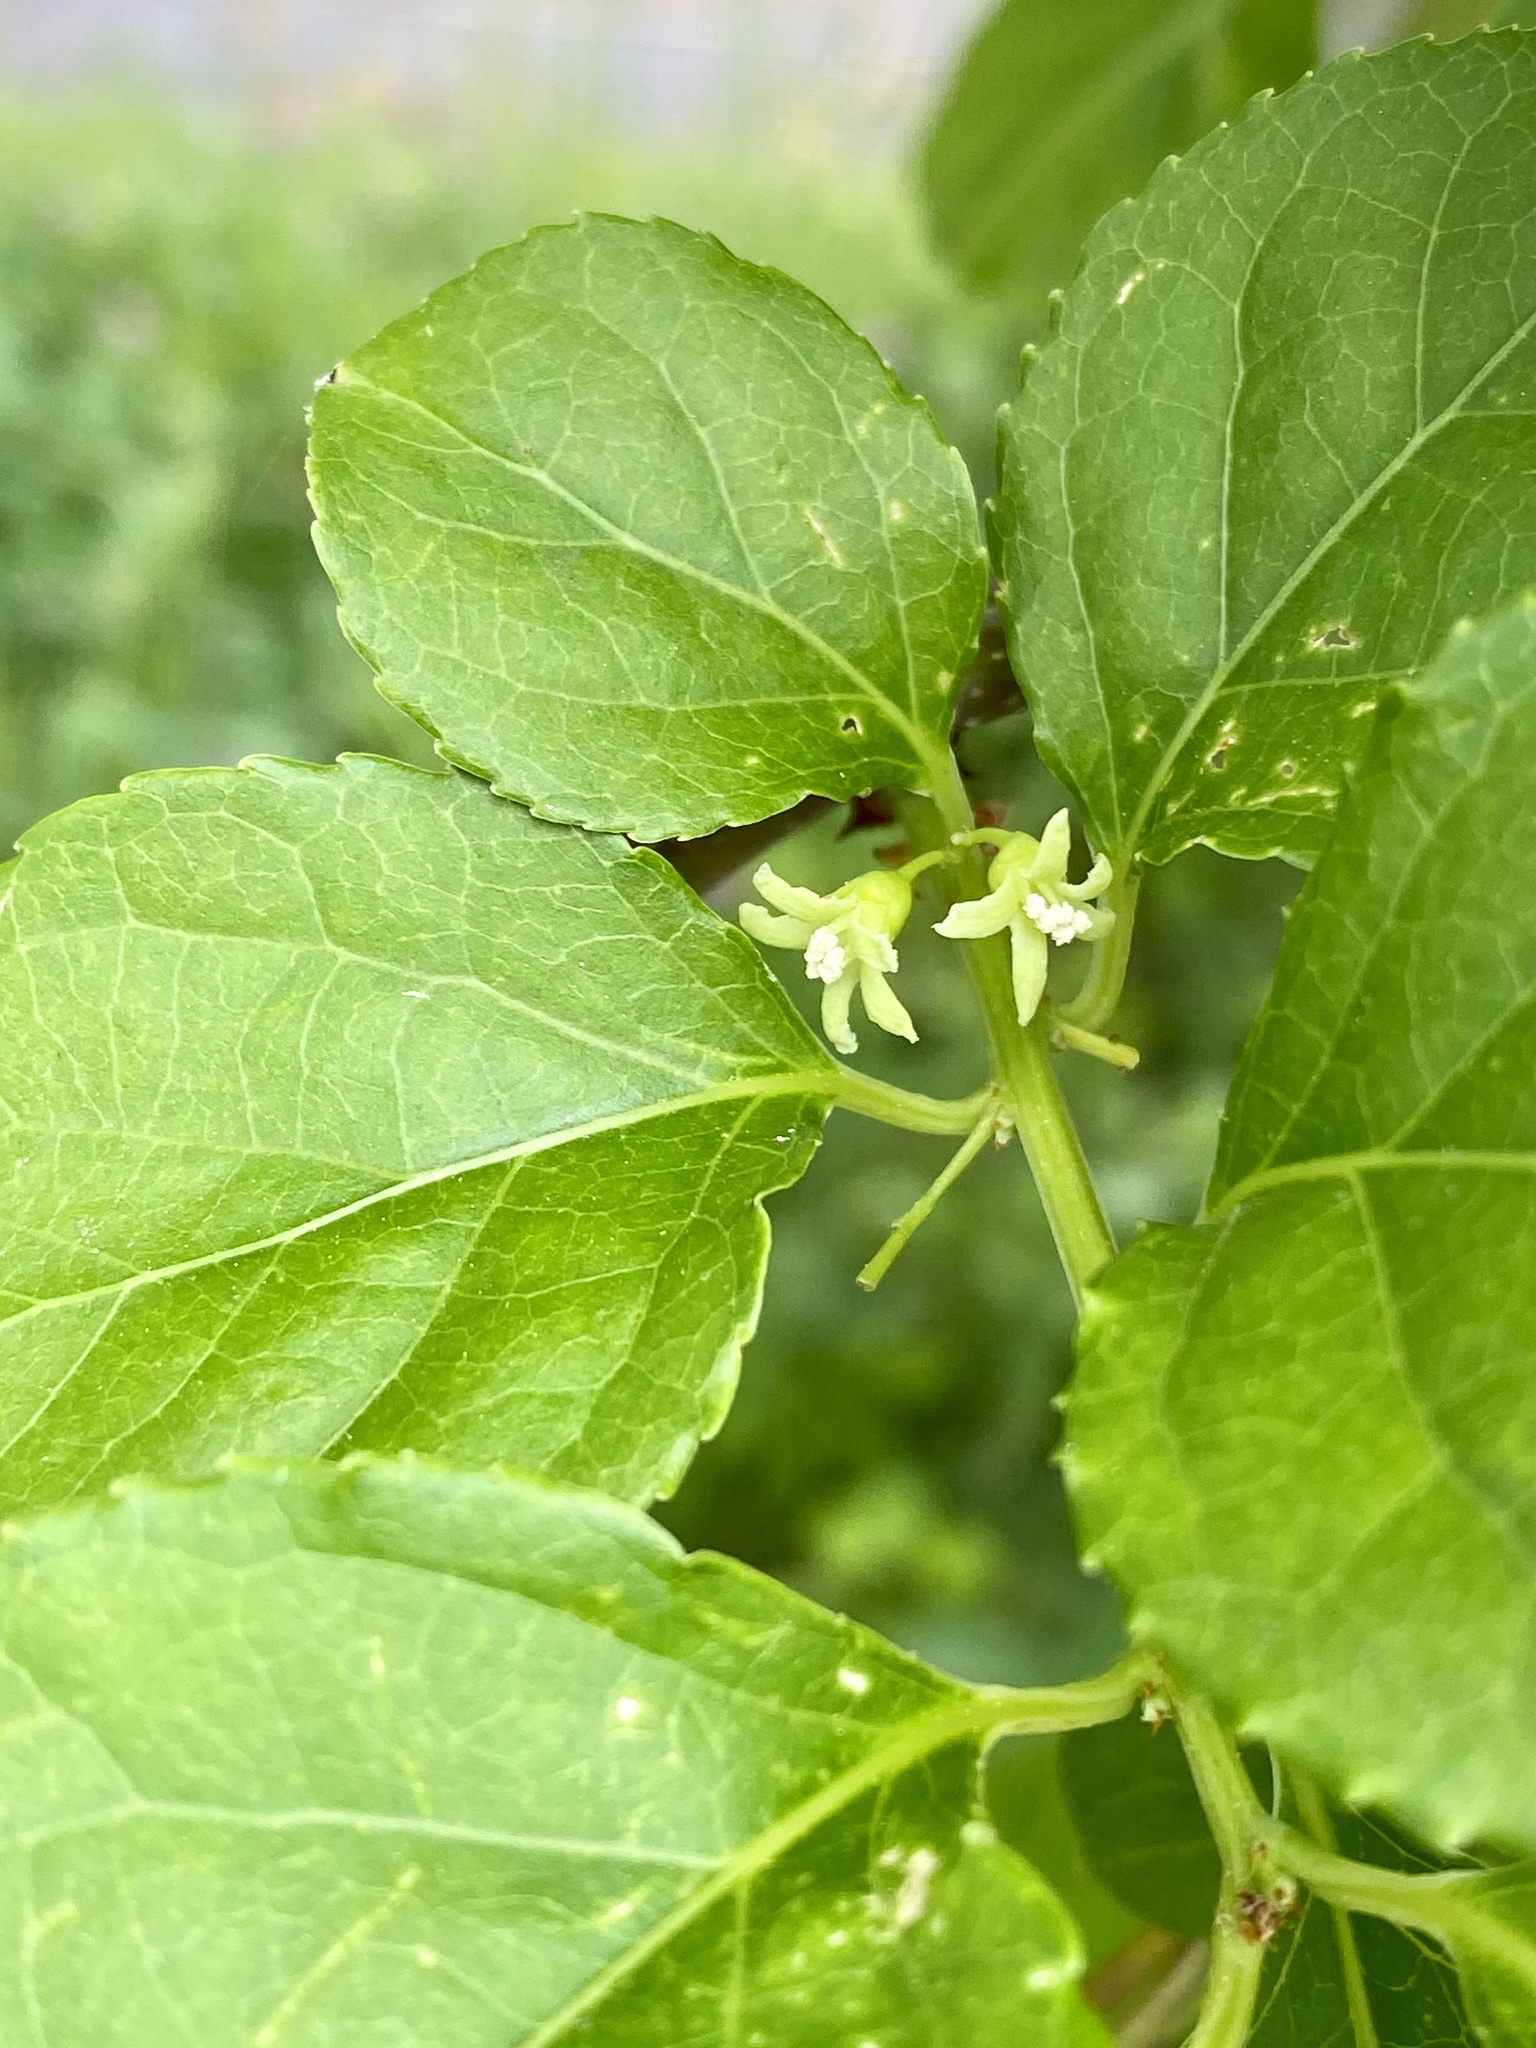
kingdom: Plantae
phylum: Tracheophyta
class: Magnoliopsida
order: Celastrales
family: Celastraceae
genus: Celastrus
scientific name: Celastrus orbiculatus
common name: Oriental bittersweet
